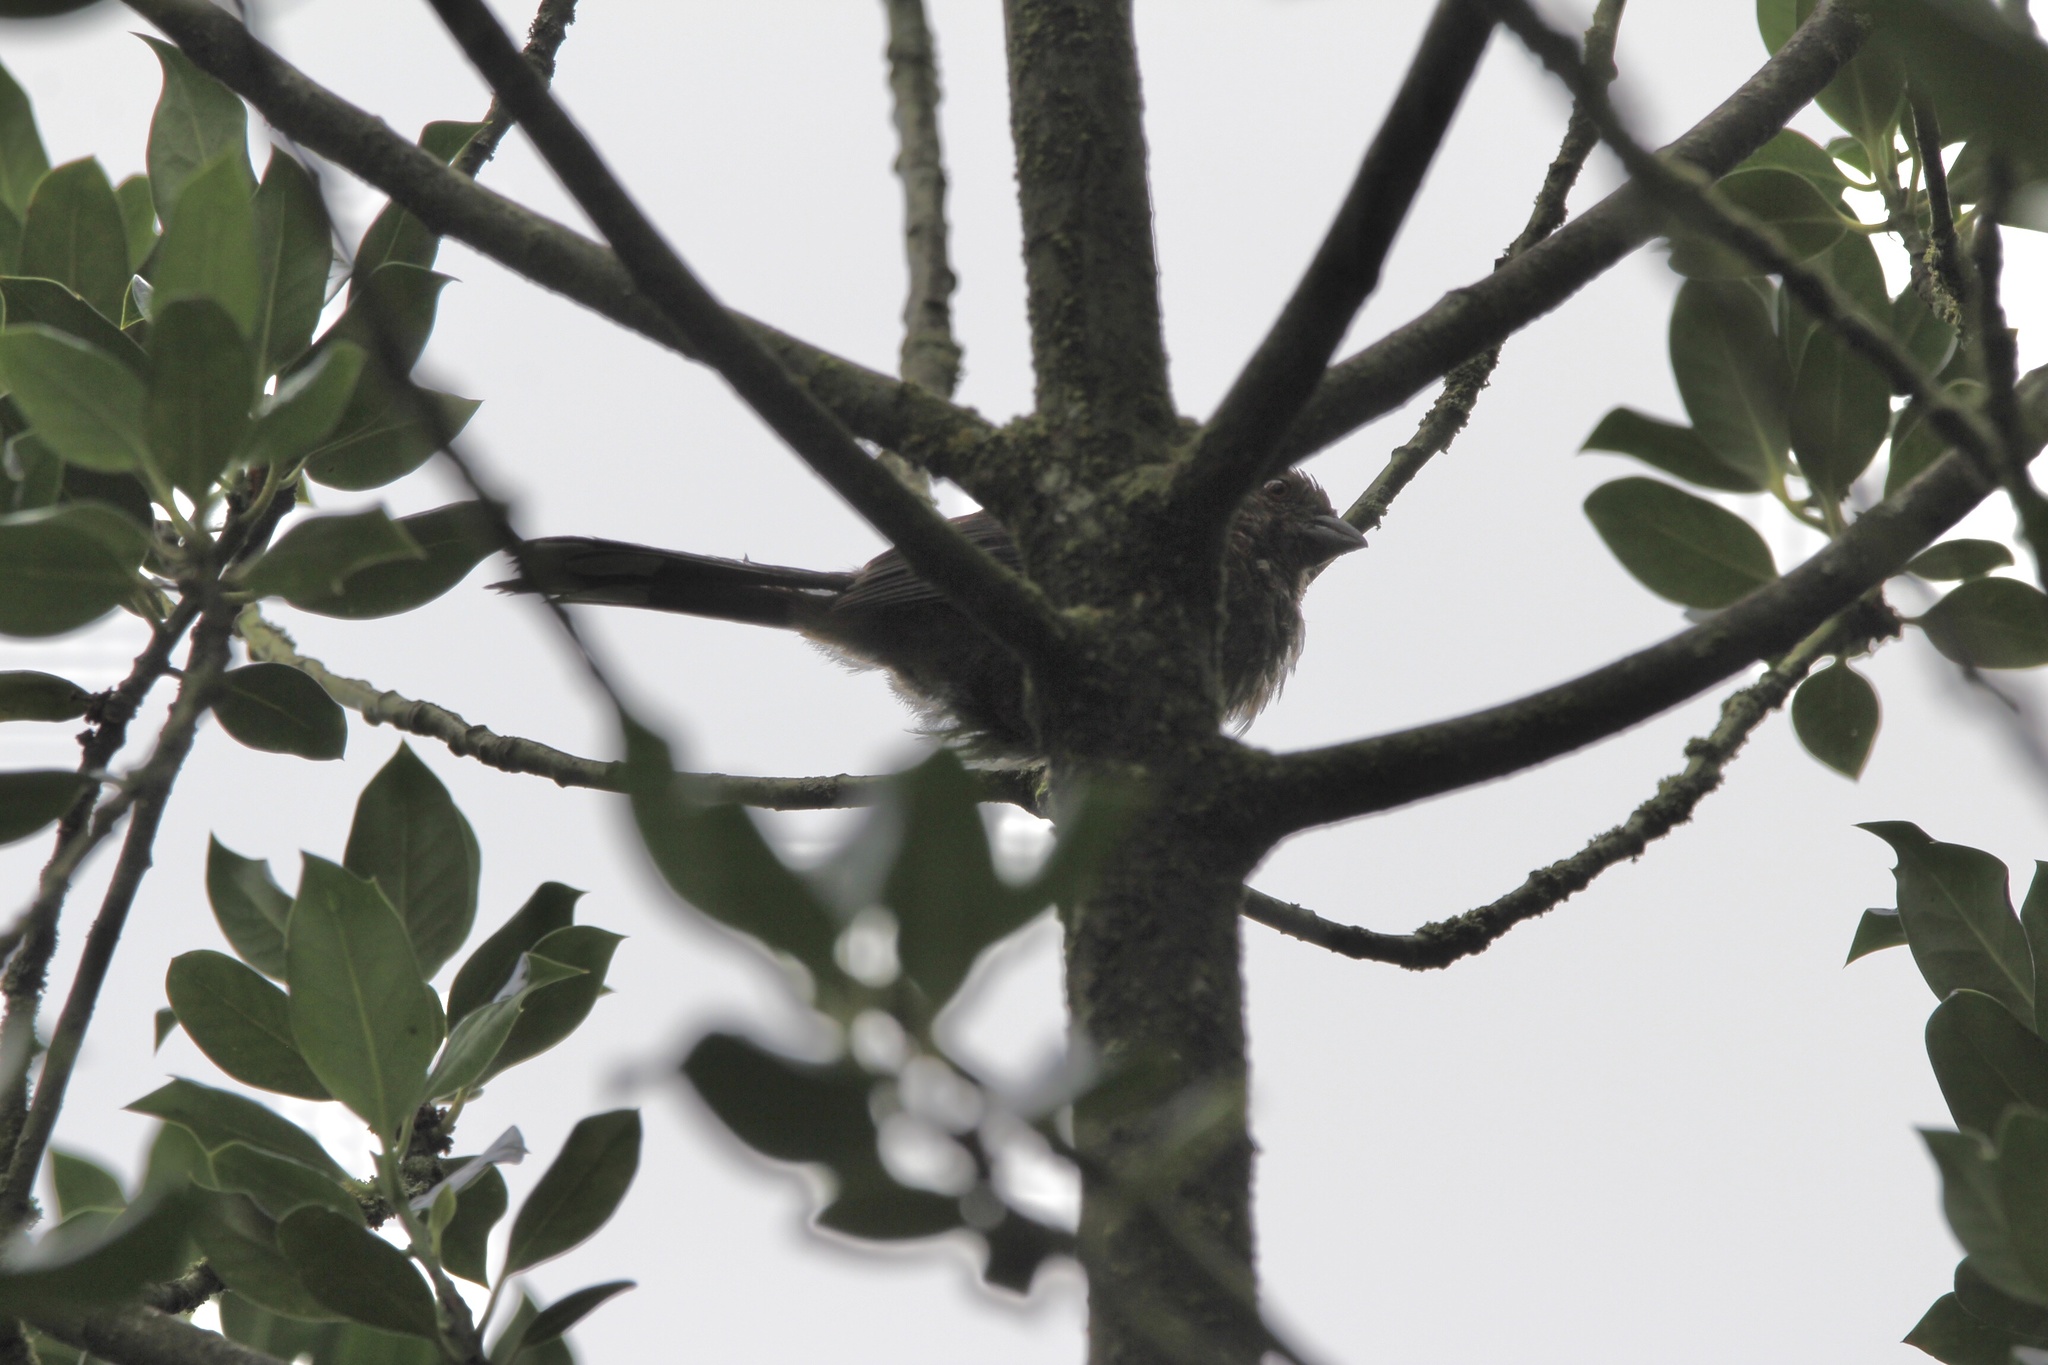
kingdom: Animalia
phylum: Chordata
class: Aves
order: Passeriformes
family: Passerellidae
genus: Pipilo
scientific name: Pipilo maculatus
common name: Spotted towhee
